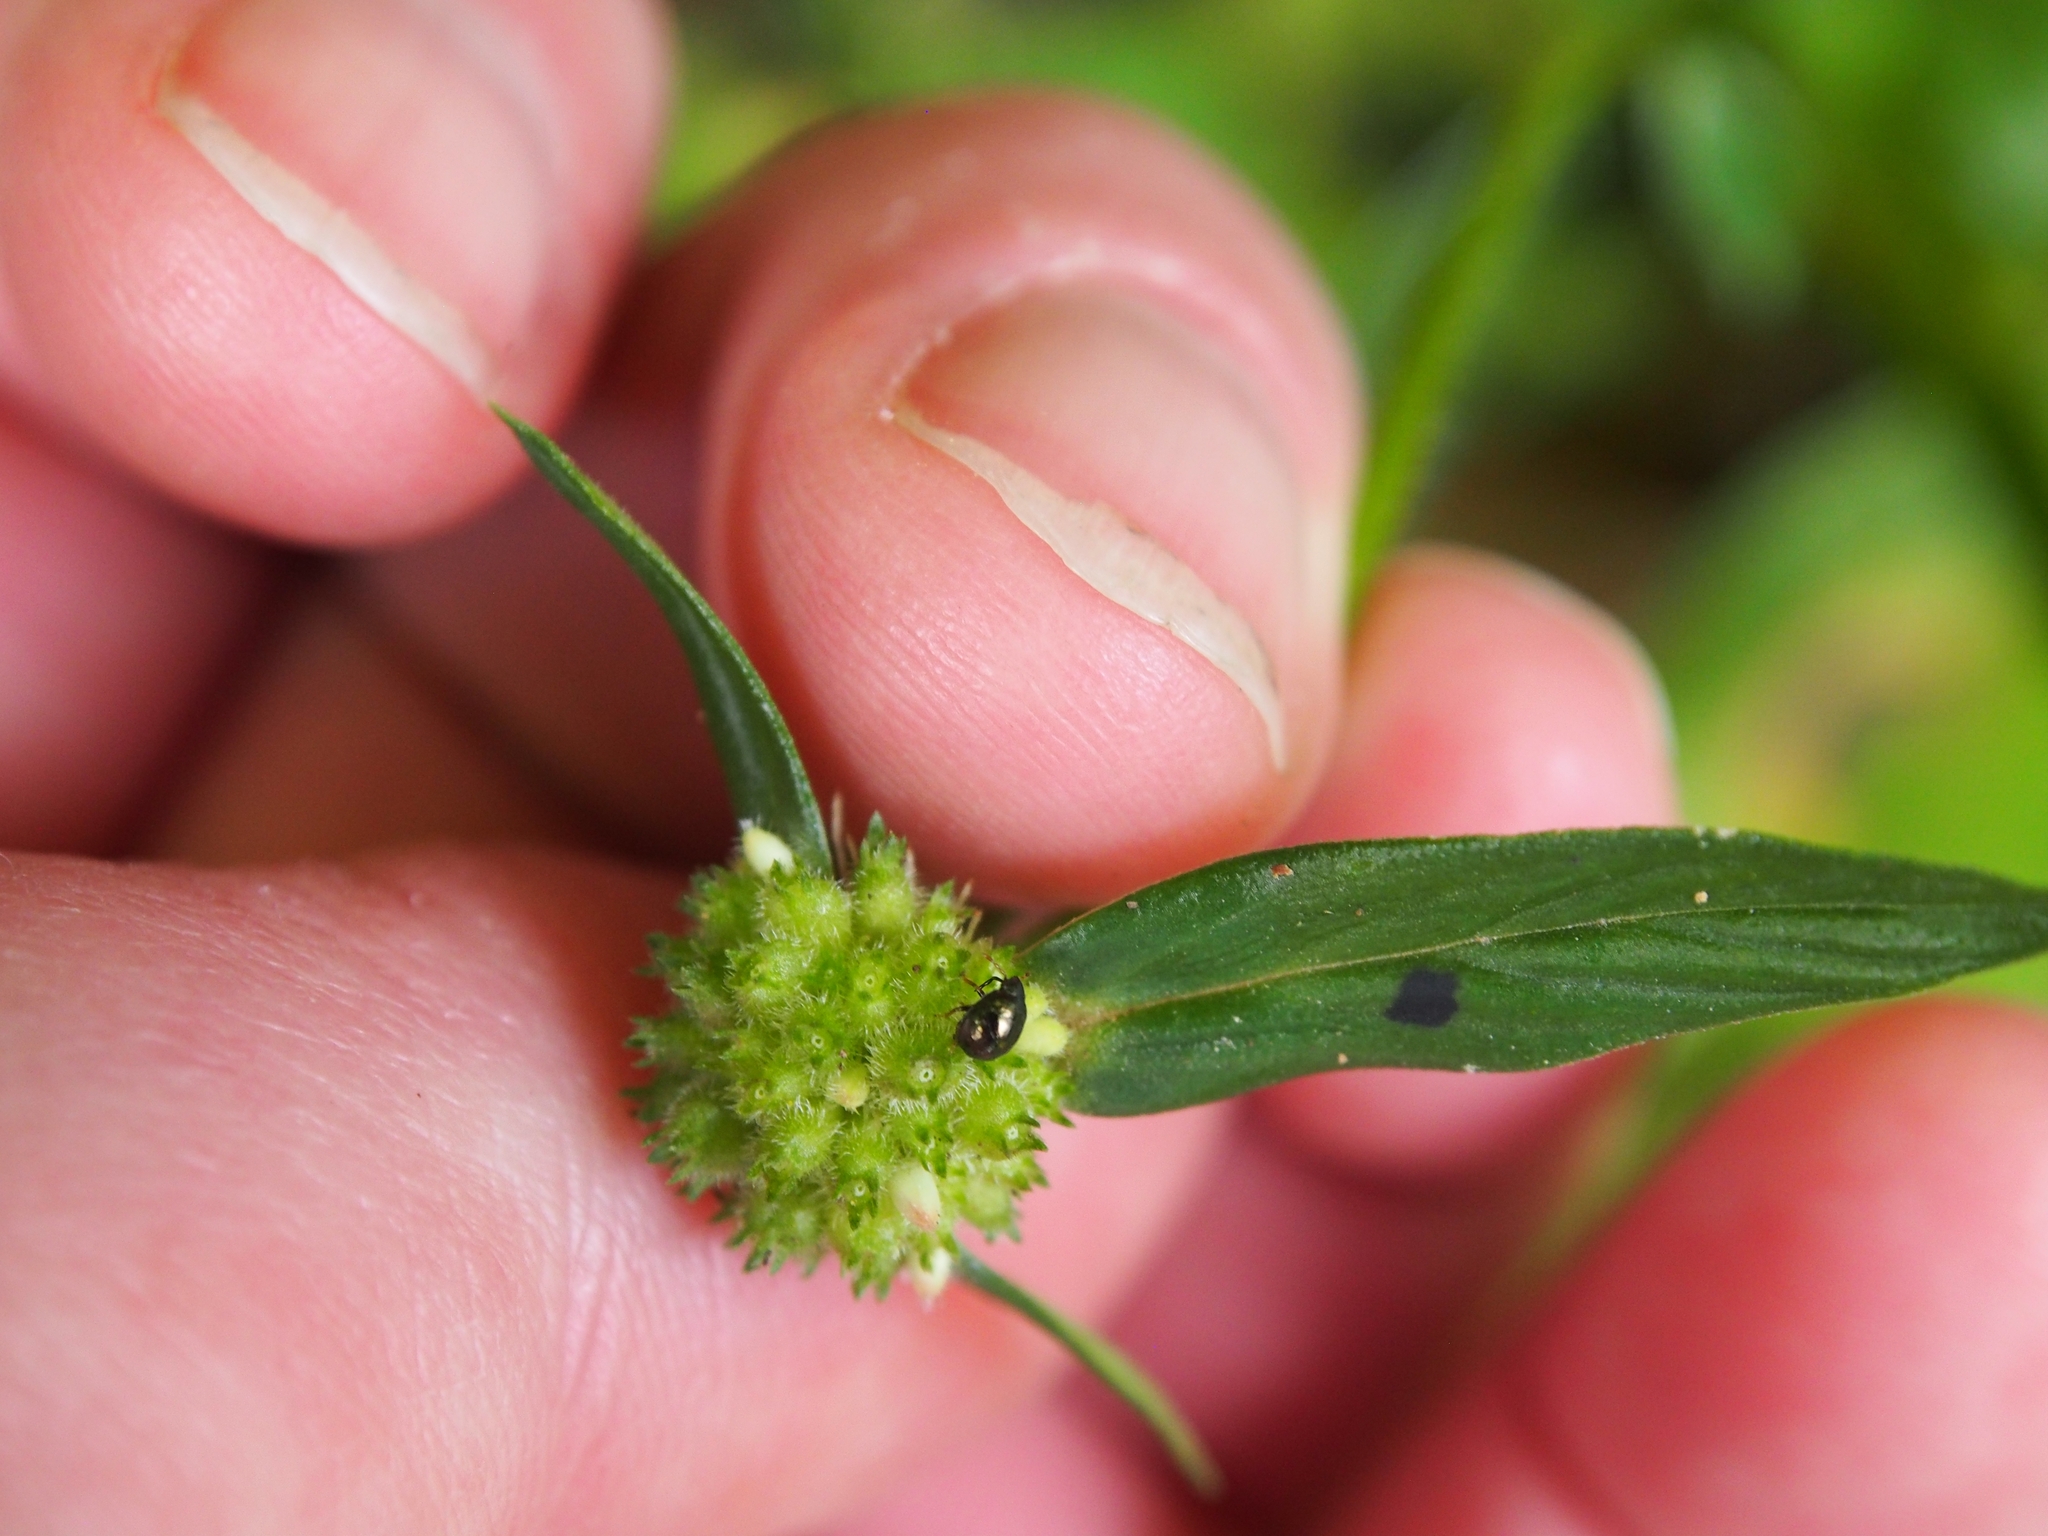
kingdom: Plantae
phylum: Tracheophyta
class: Magnoliopsida
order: Gentianales
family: Rubiaceae
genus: Spermacoce
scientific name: Spermacoce remota
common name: Woodland false buttonweed
